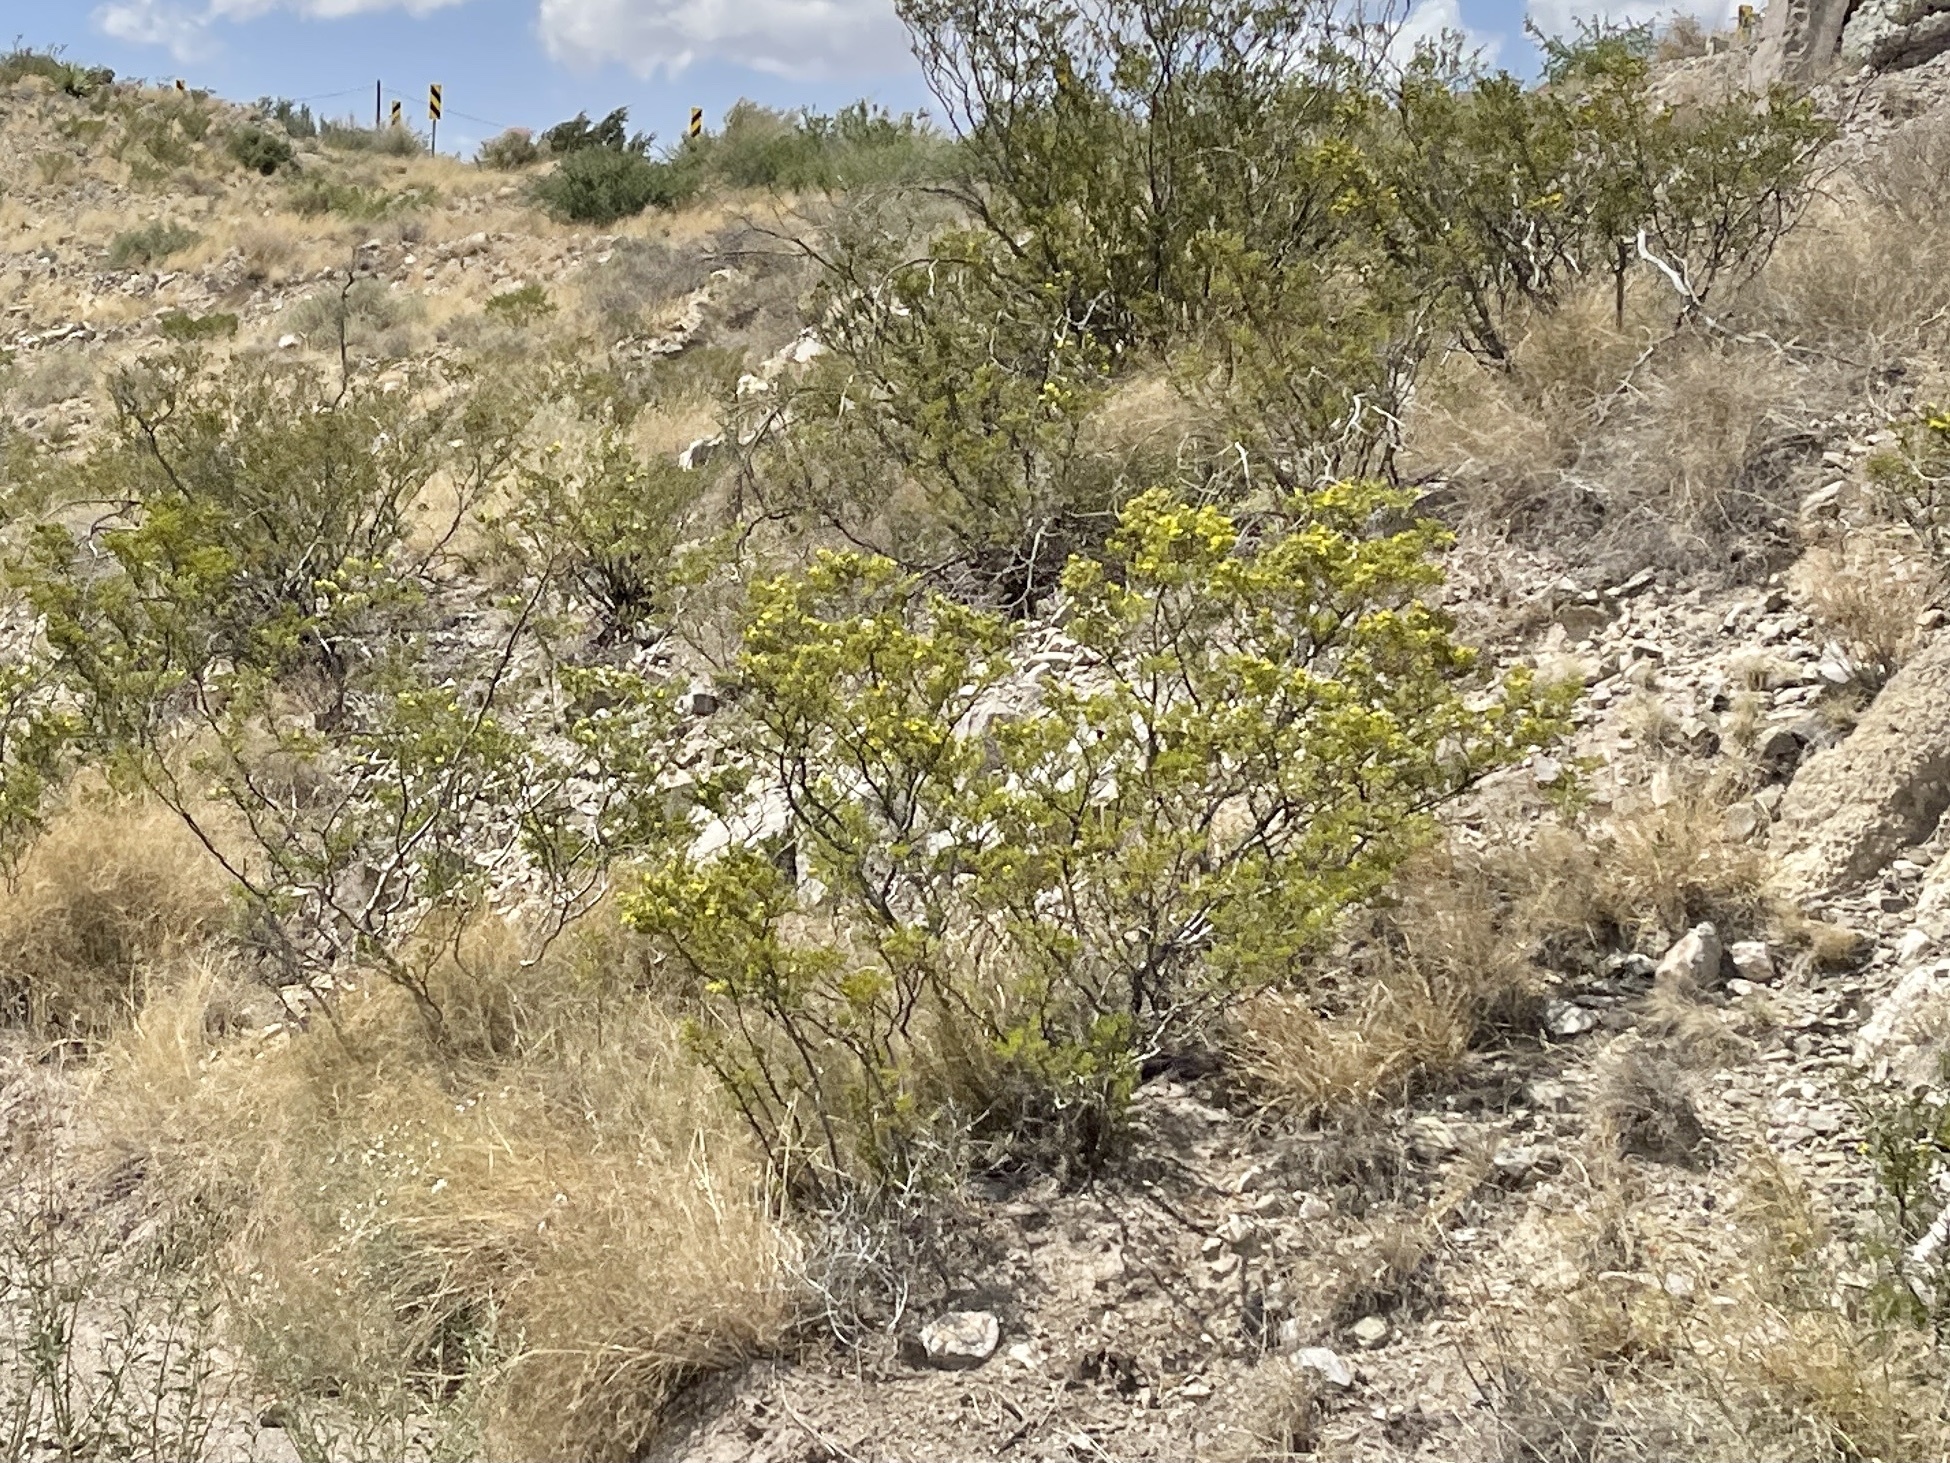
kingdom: Plantae
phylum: Tracheophyta
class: Magnoliopsida
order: Zygophyllales
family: Zygophyllaceae
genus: Larrea
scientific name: Larrea tridentata
